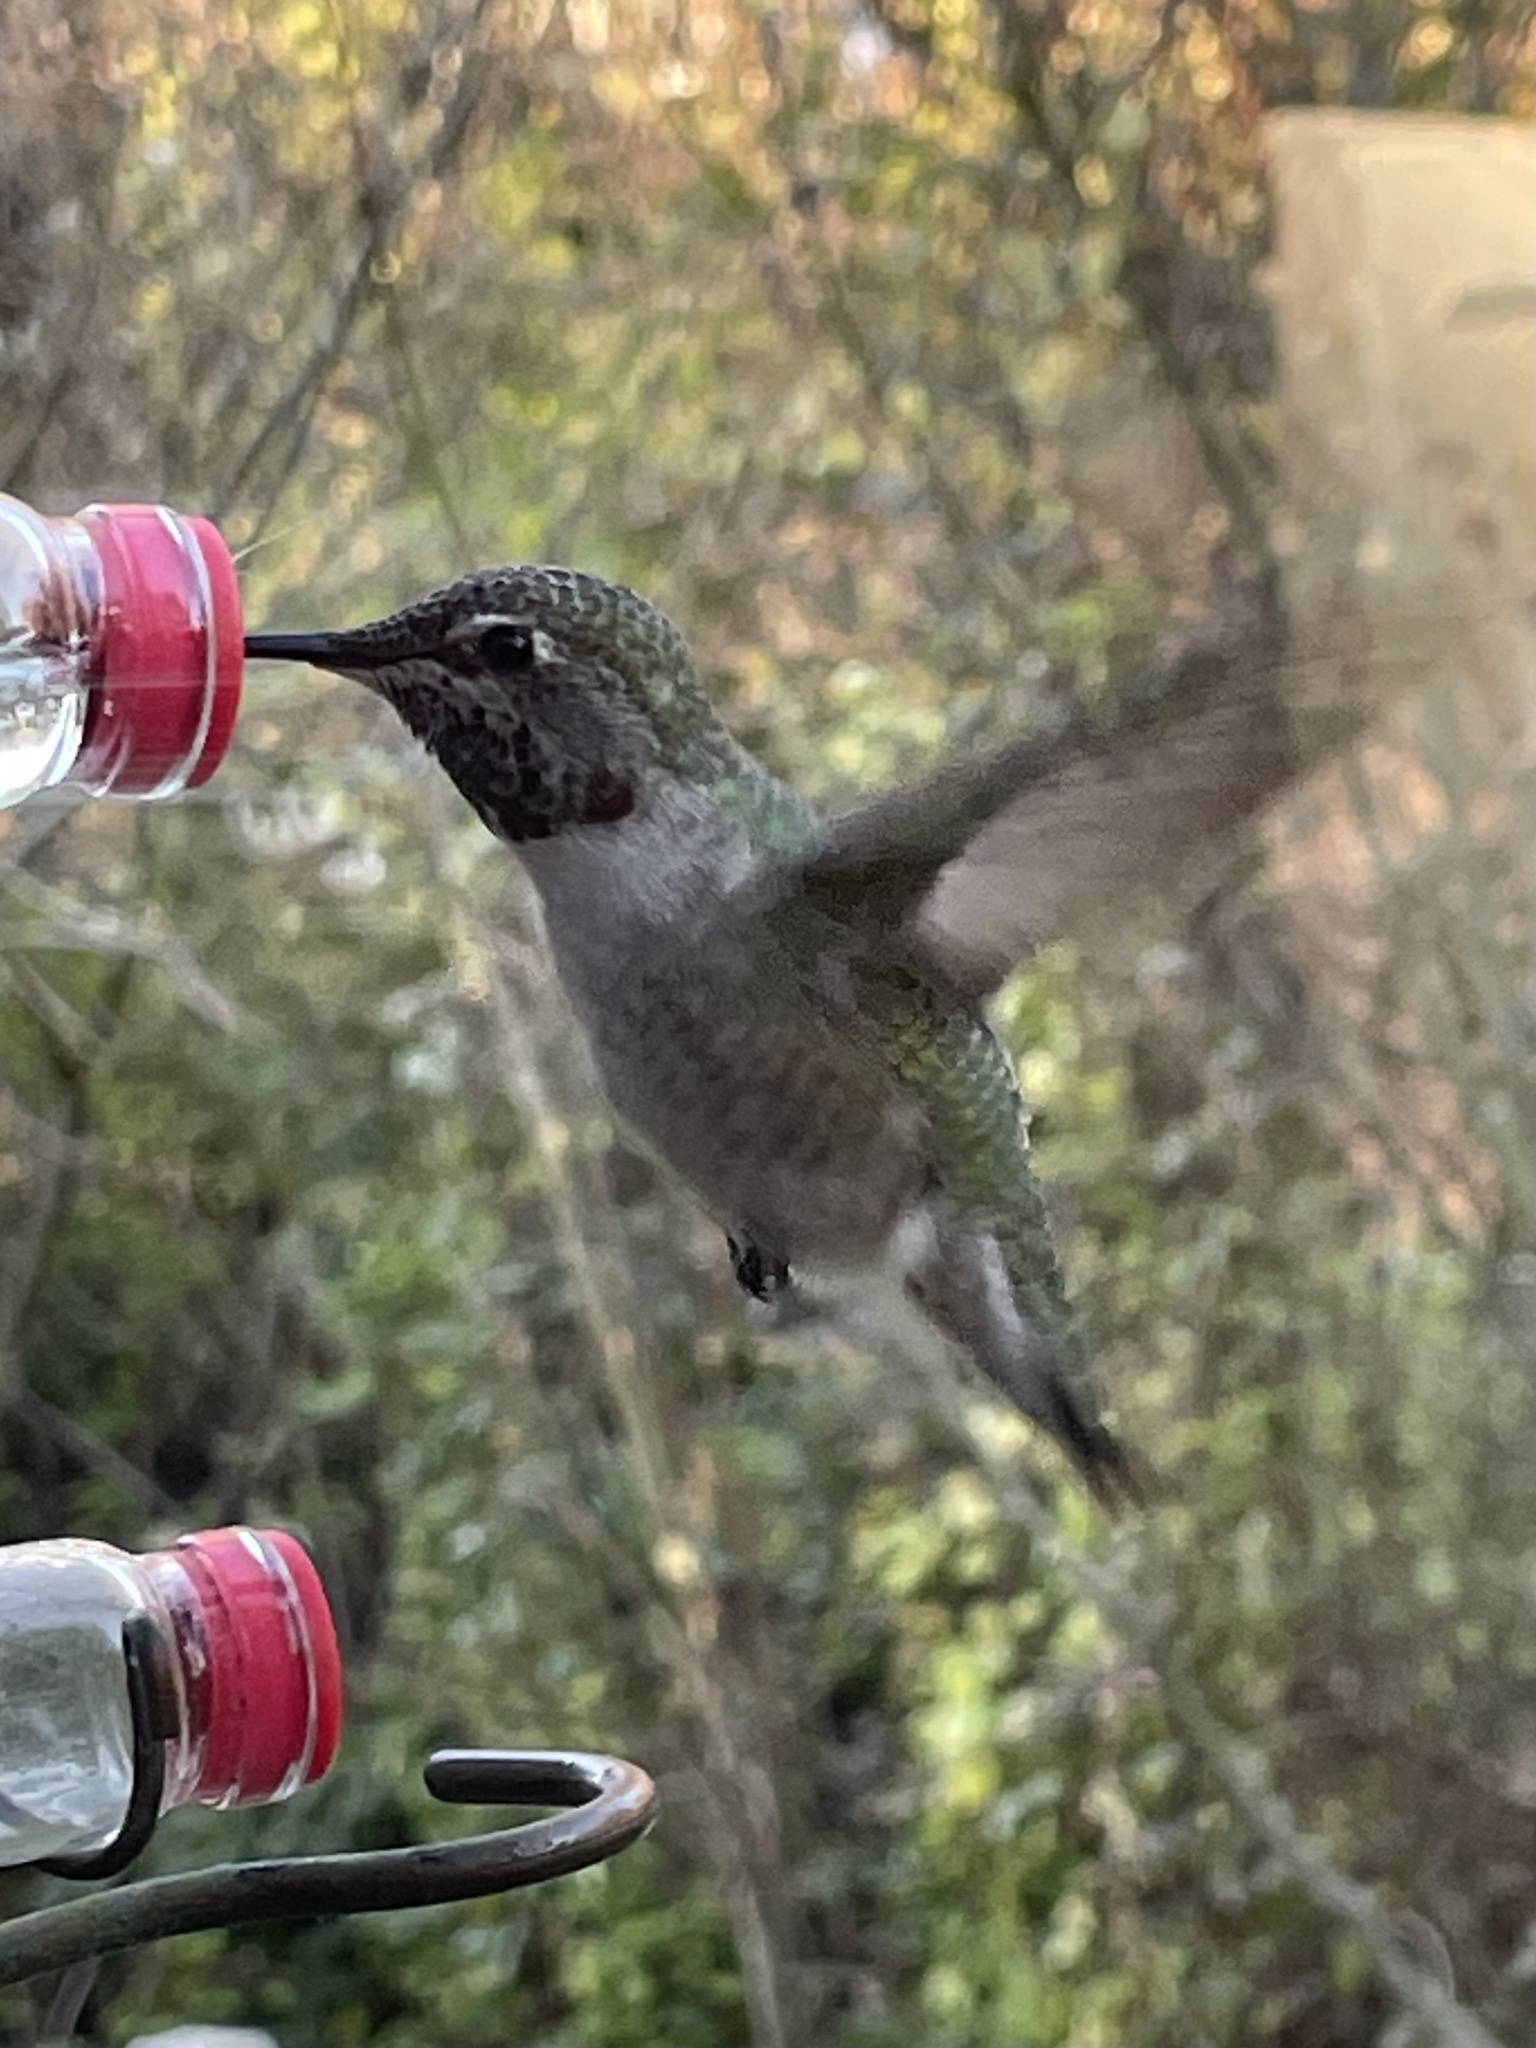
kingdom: Animalia
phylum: Chordata
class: Aves
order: Apodiformes
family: Trochilidae
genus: Calypte
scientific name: Calypte anna
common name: Anna's hummingbird
